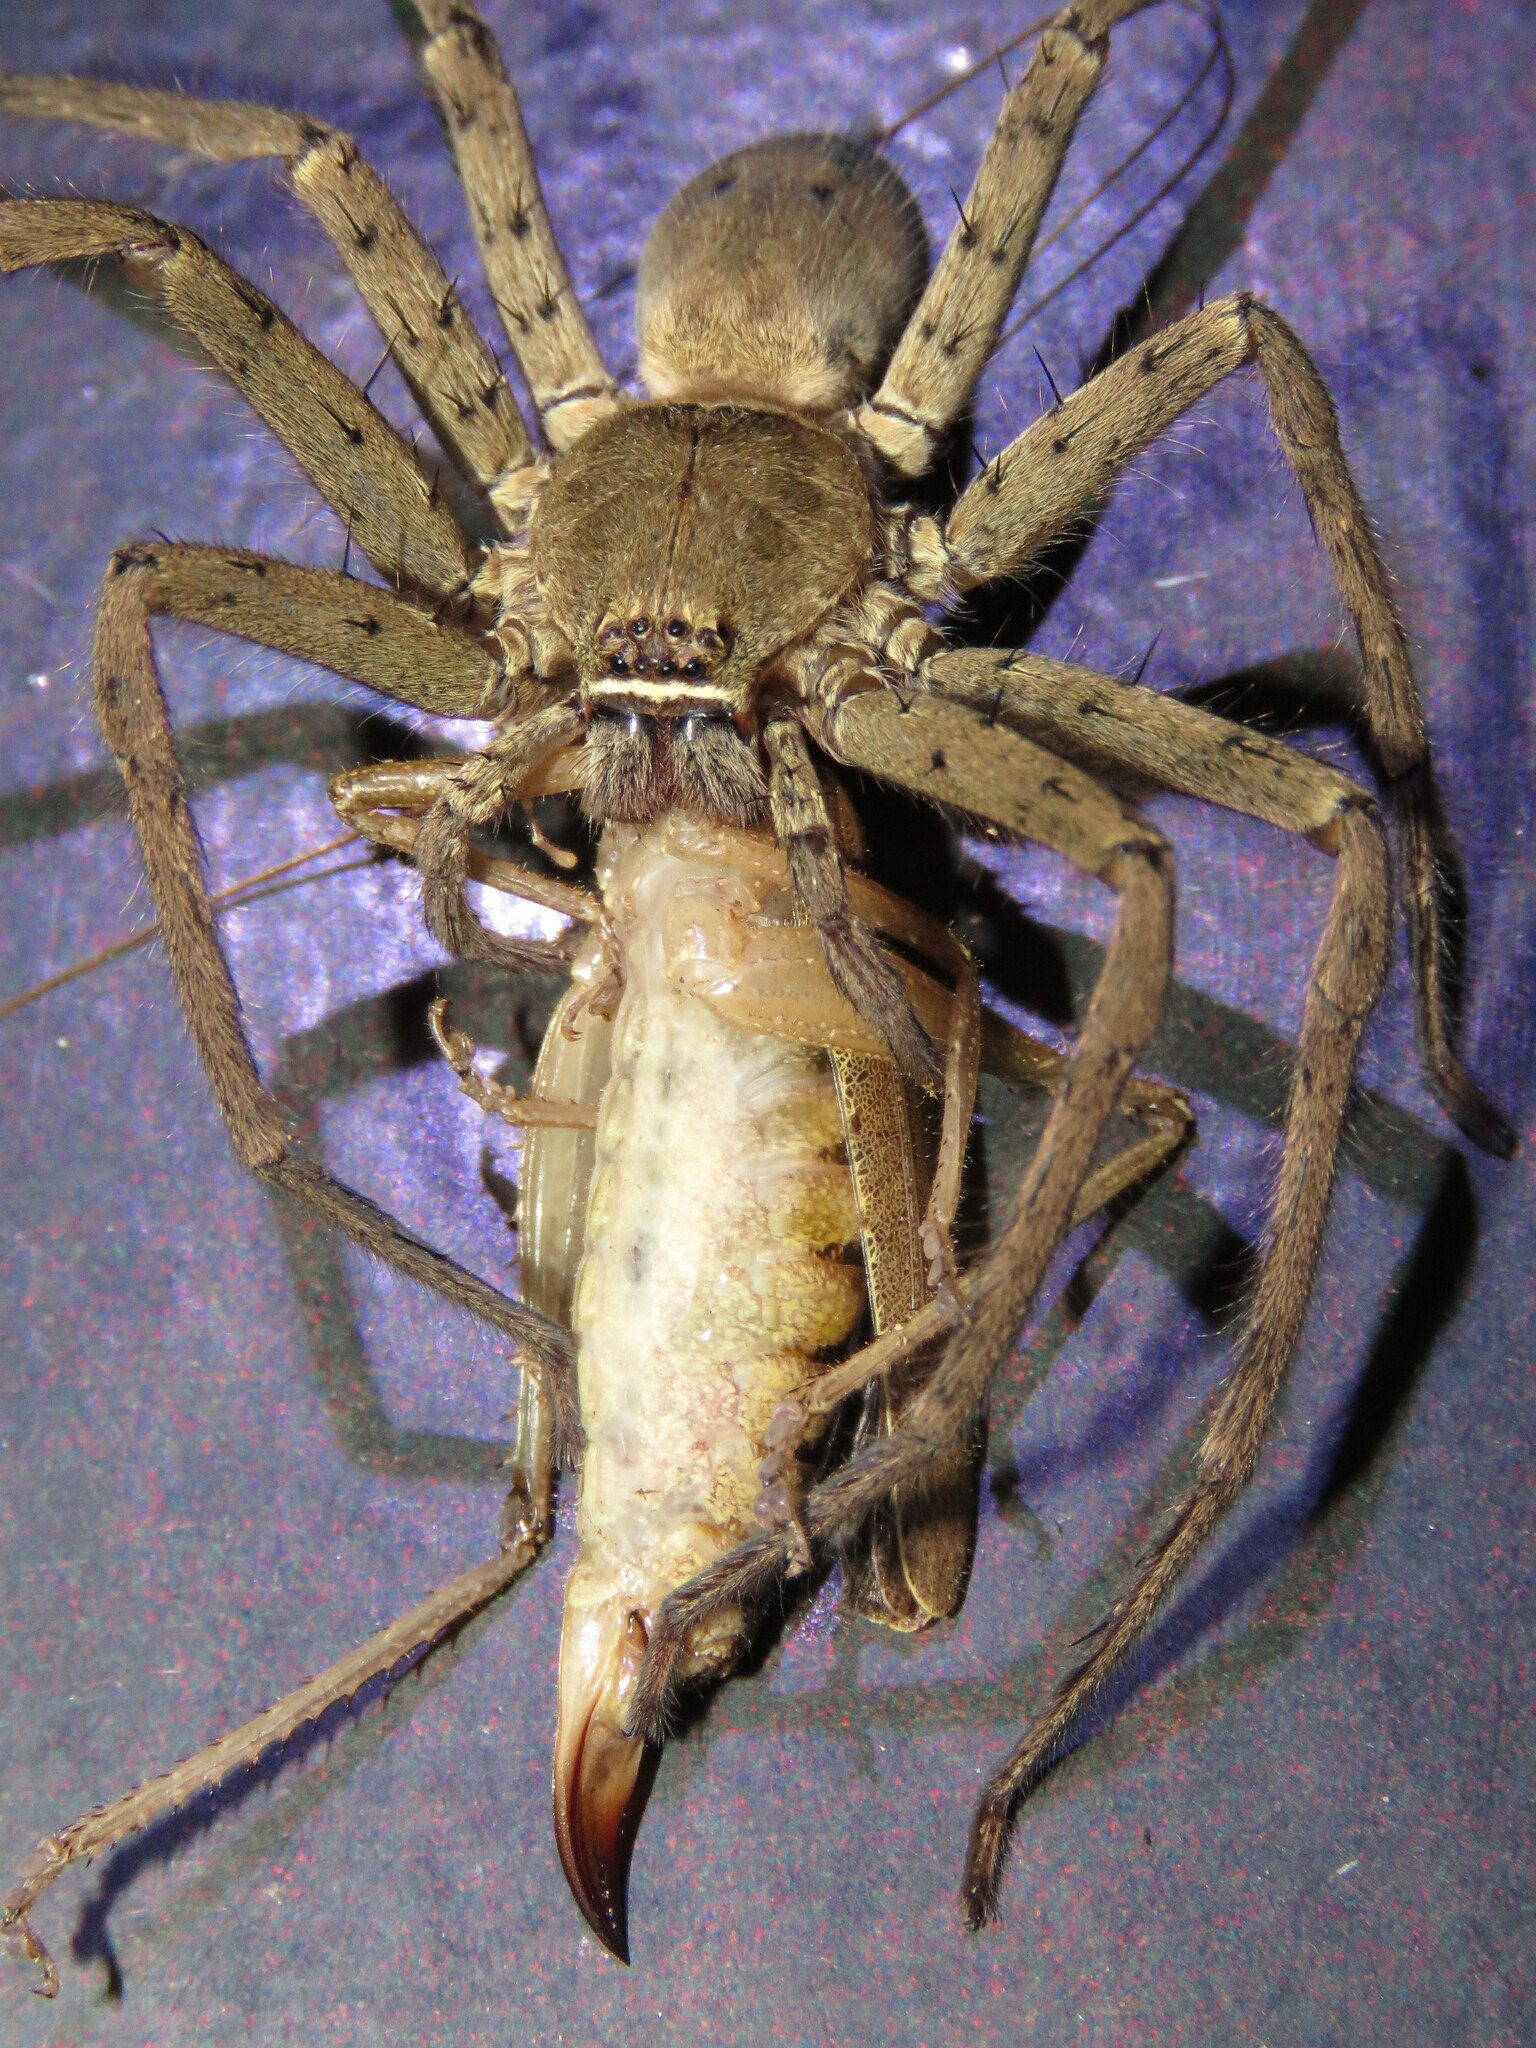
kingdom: Animalia
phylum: Arthropoda
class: Arachnida
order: Araneae
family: Sparassidae
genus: Heteropoda
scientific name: Heteropoda venatoria
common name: Huntsman spider
